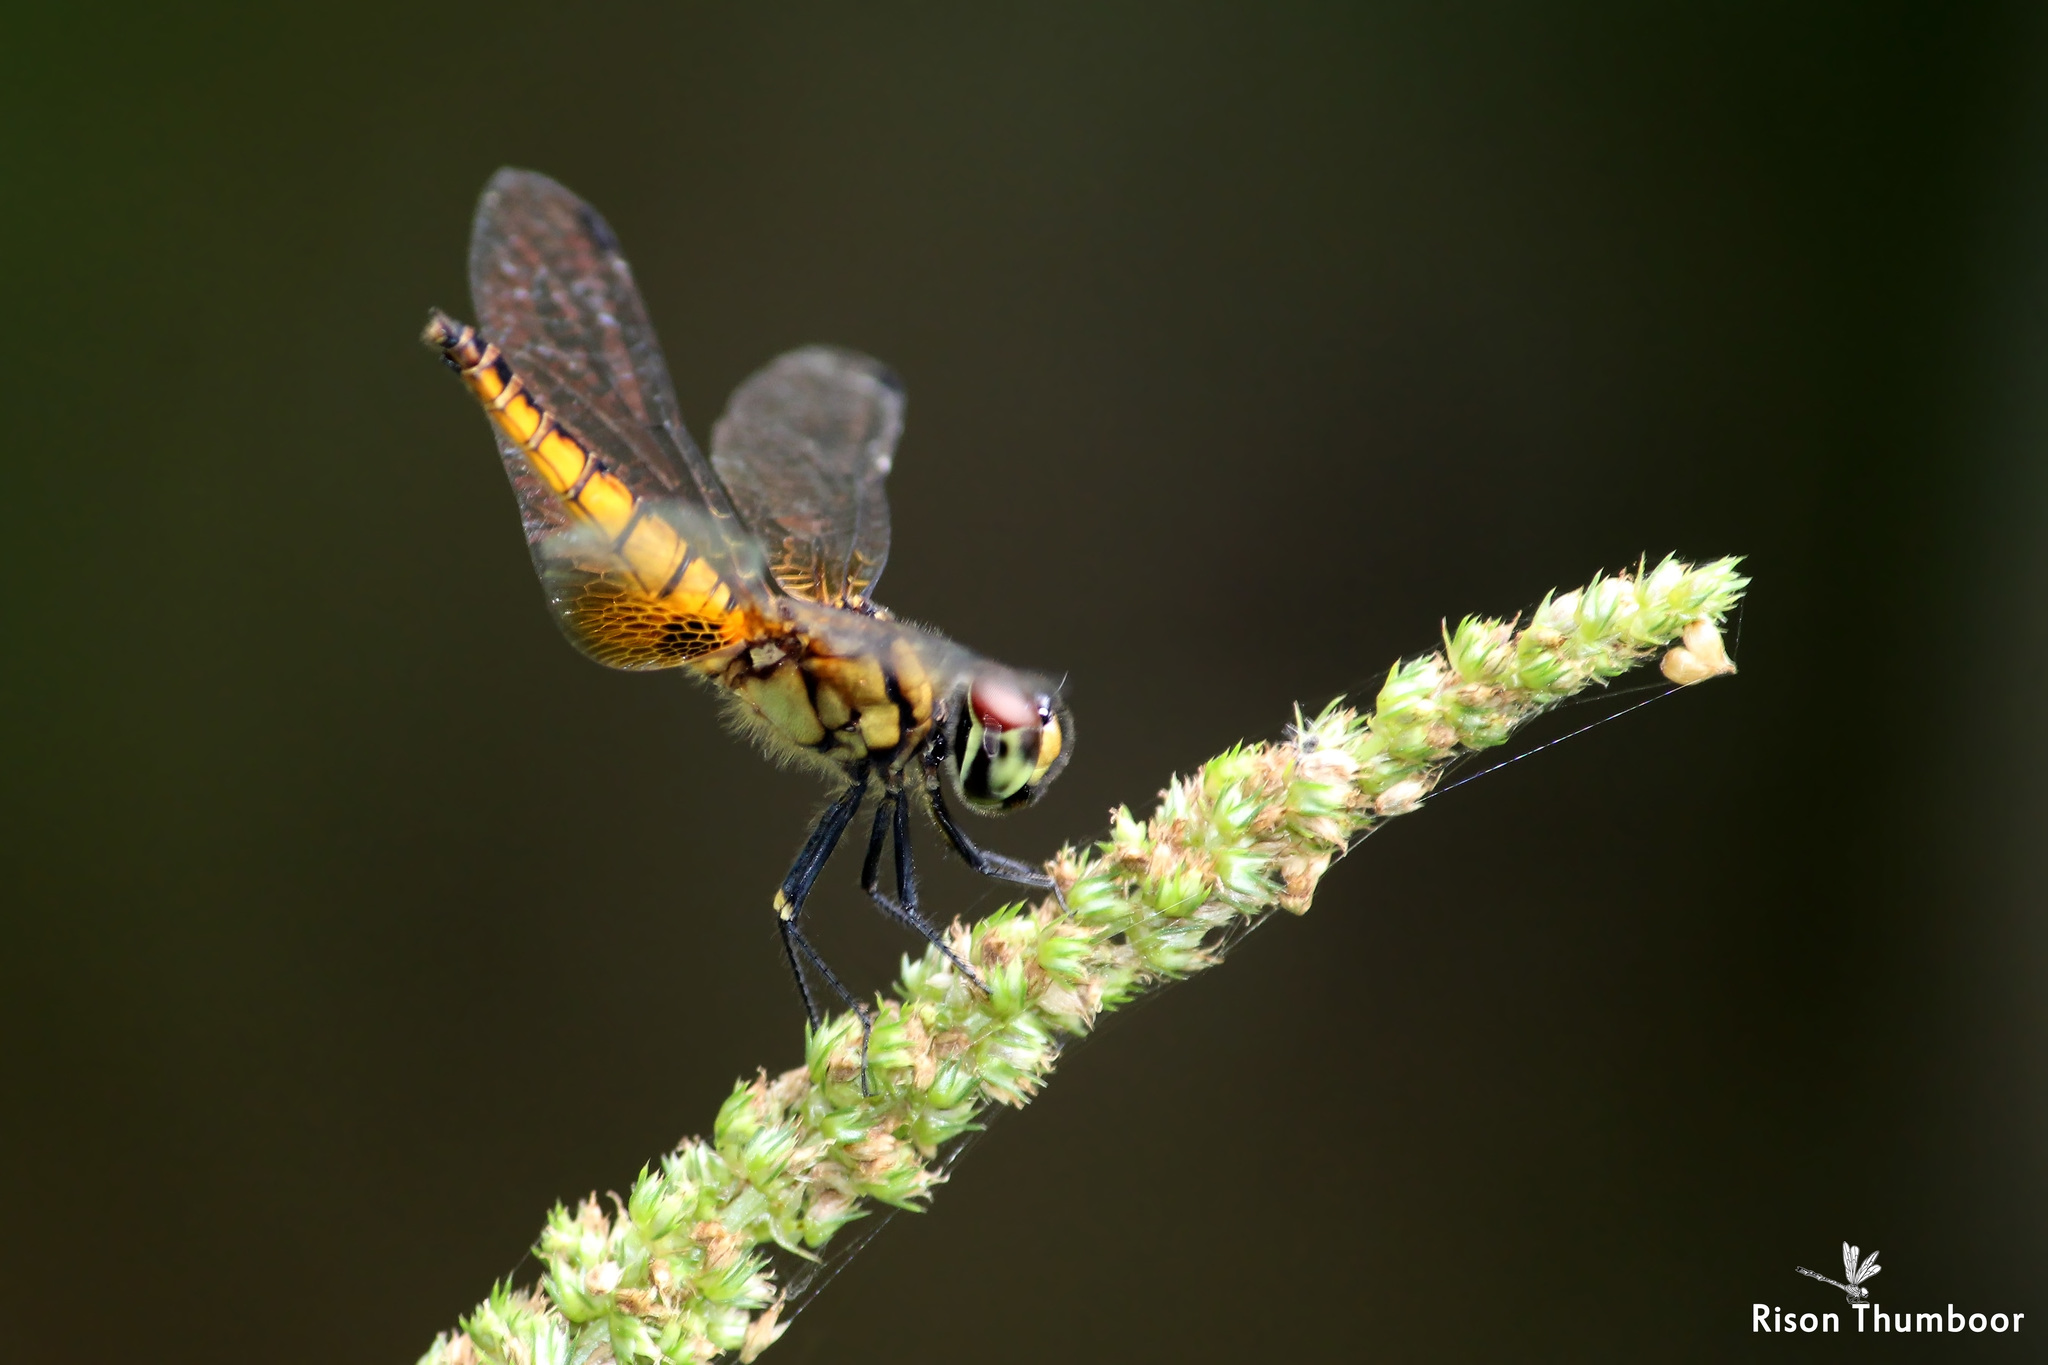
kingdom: Animalia
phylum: Arthropoda
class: Insecta
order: Odonata
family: Libellulidae
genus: Aethriamanta
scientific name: Aethriamanta brevipennis
